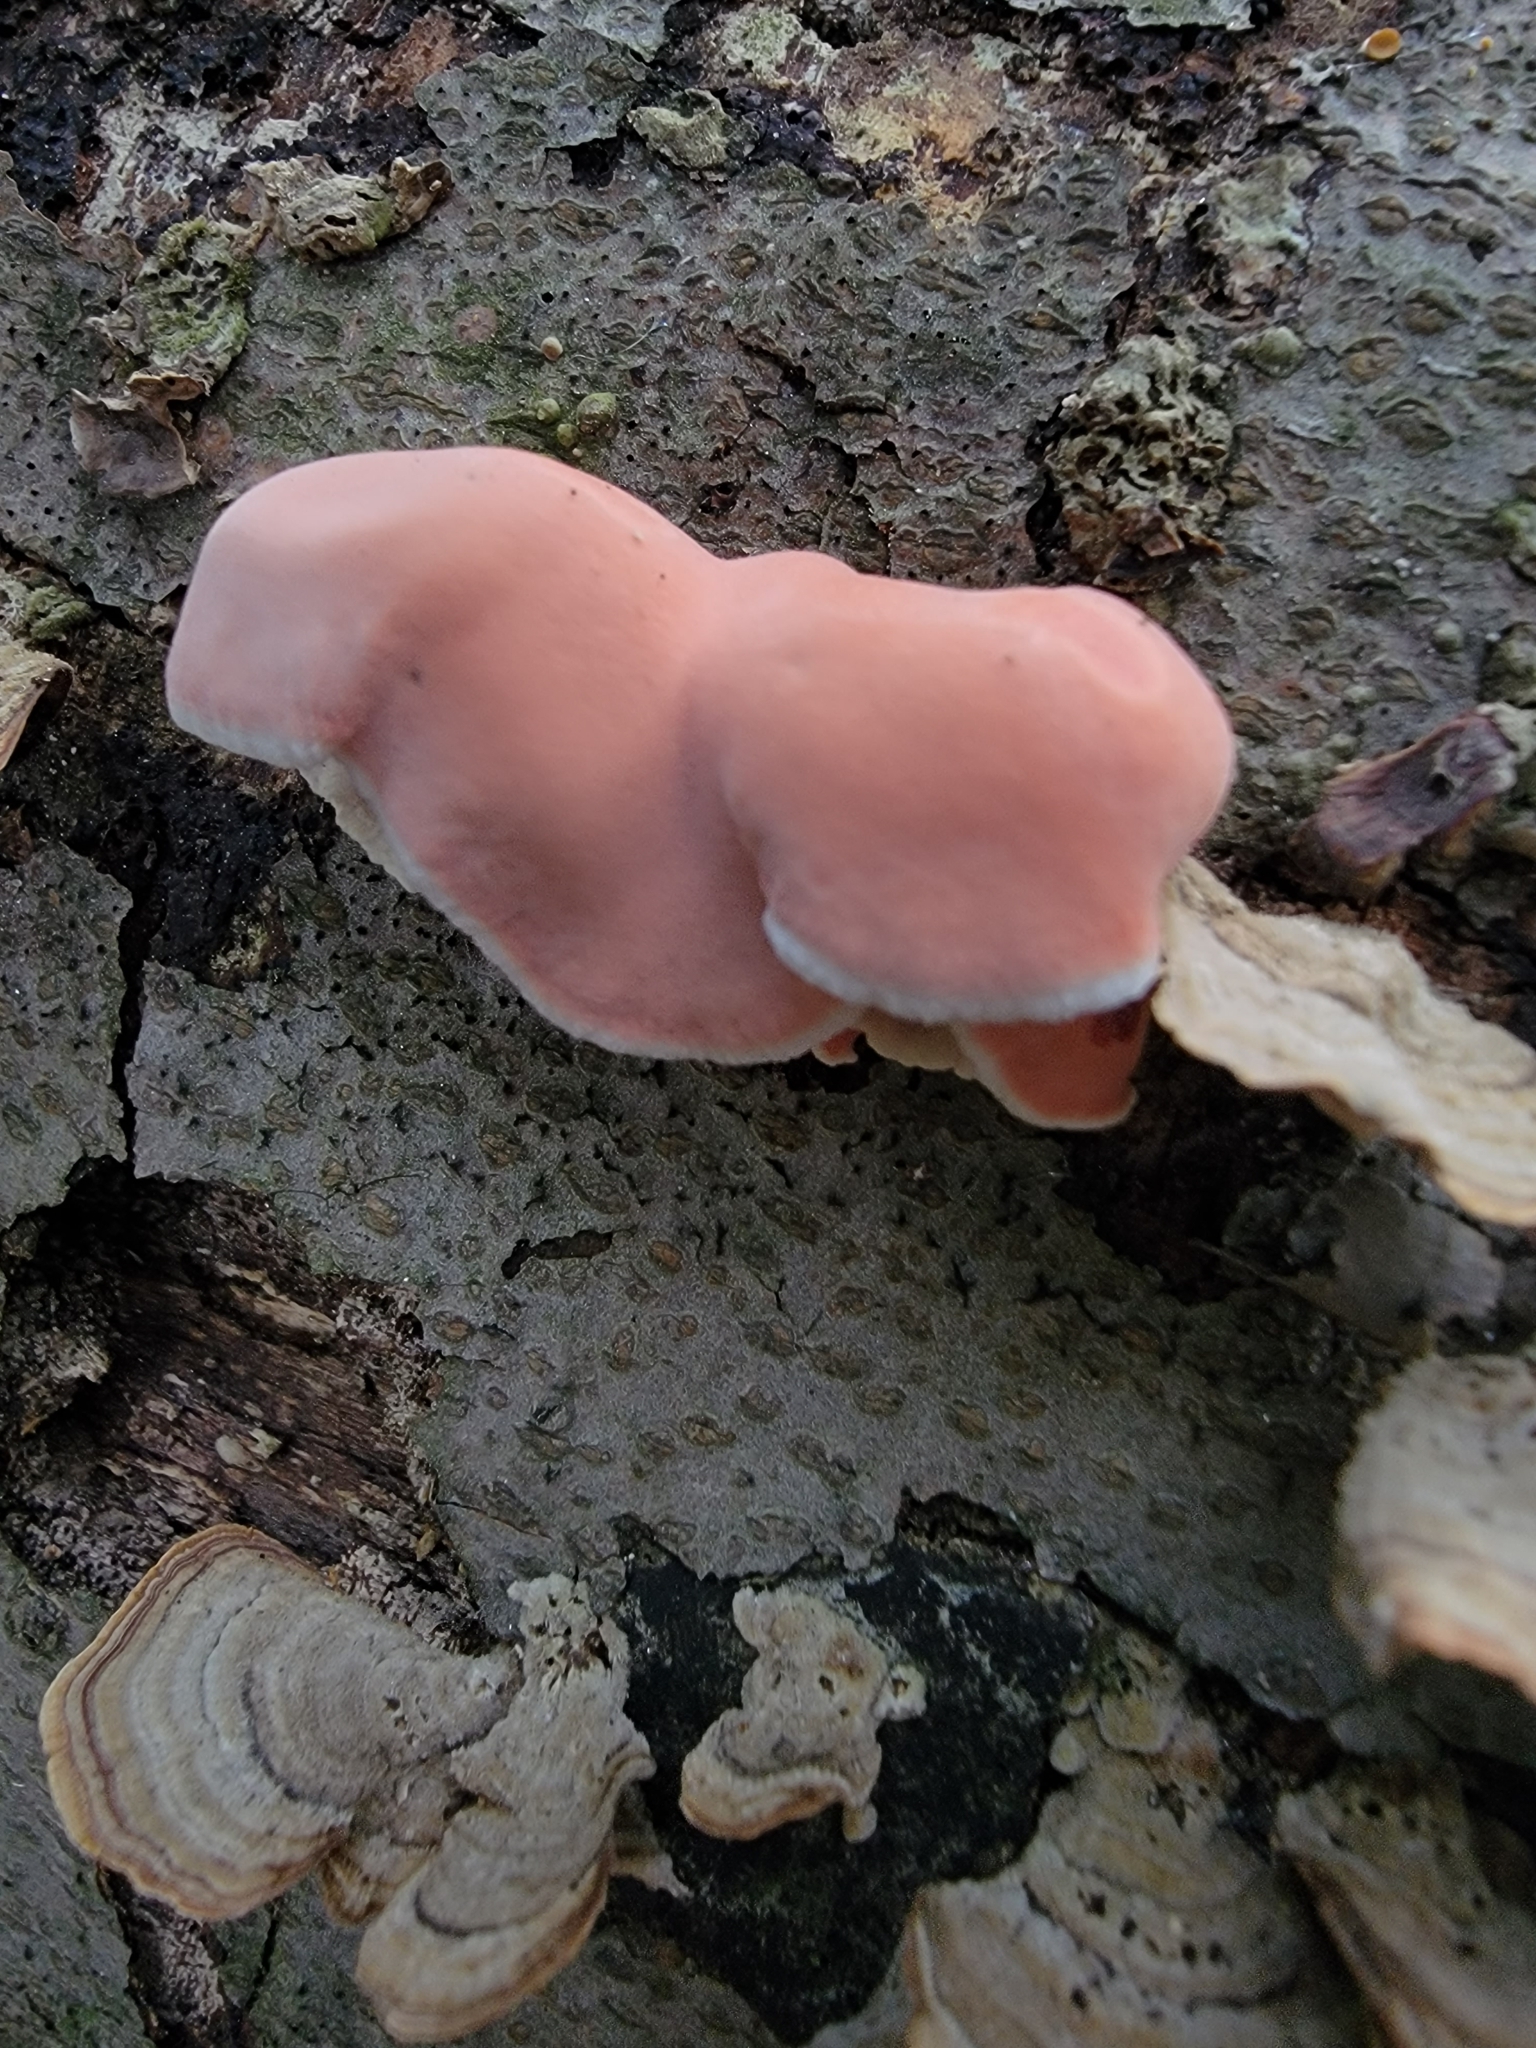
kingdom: Fungi
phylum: Basidiomycota
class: Agaricomycetes
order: Polyporales
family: Irpicaceae
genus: Byssomerulius
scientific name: Byssomerulius incarnatus
